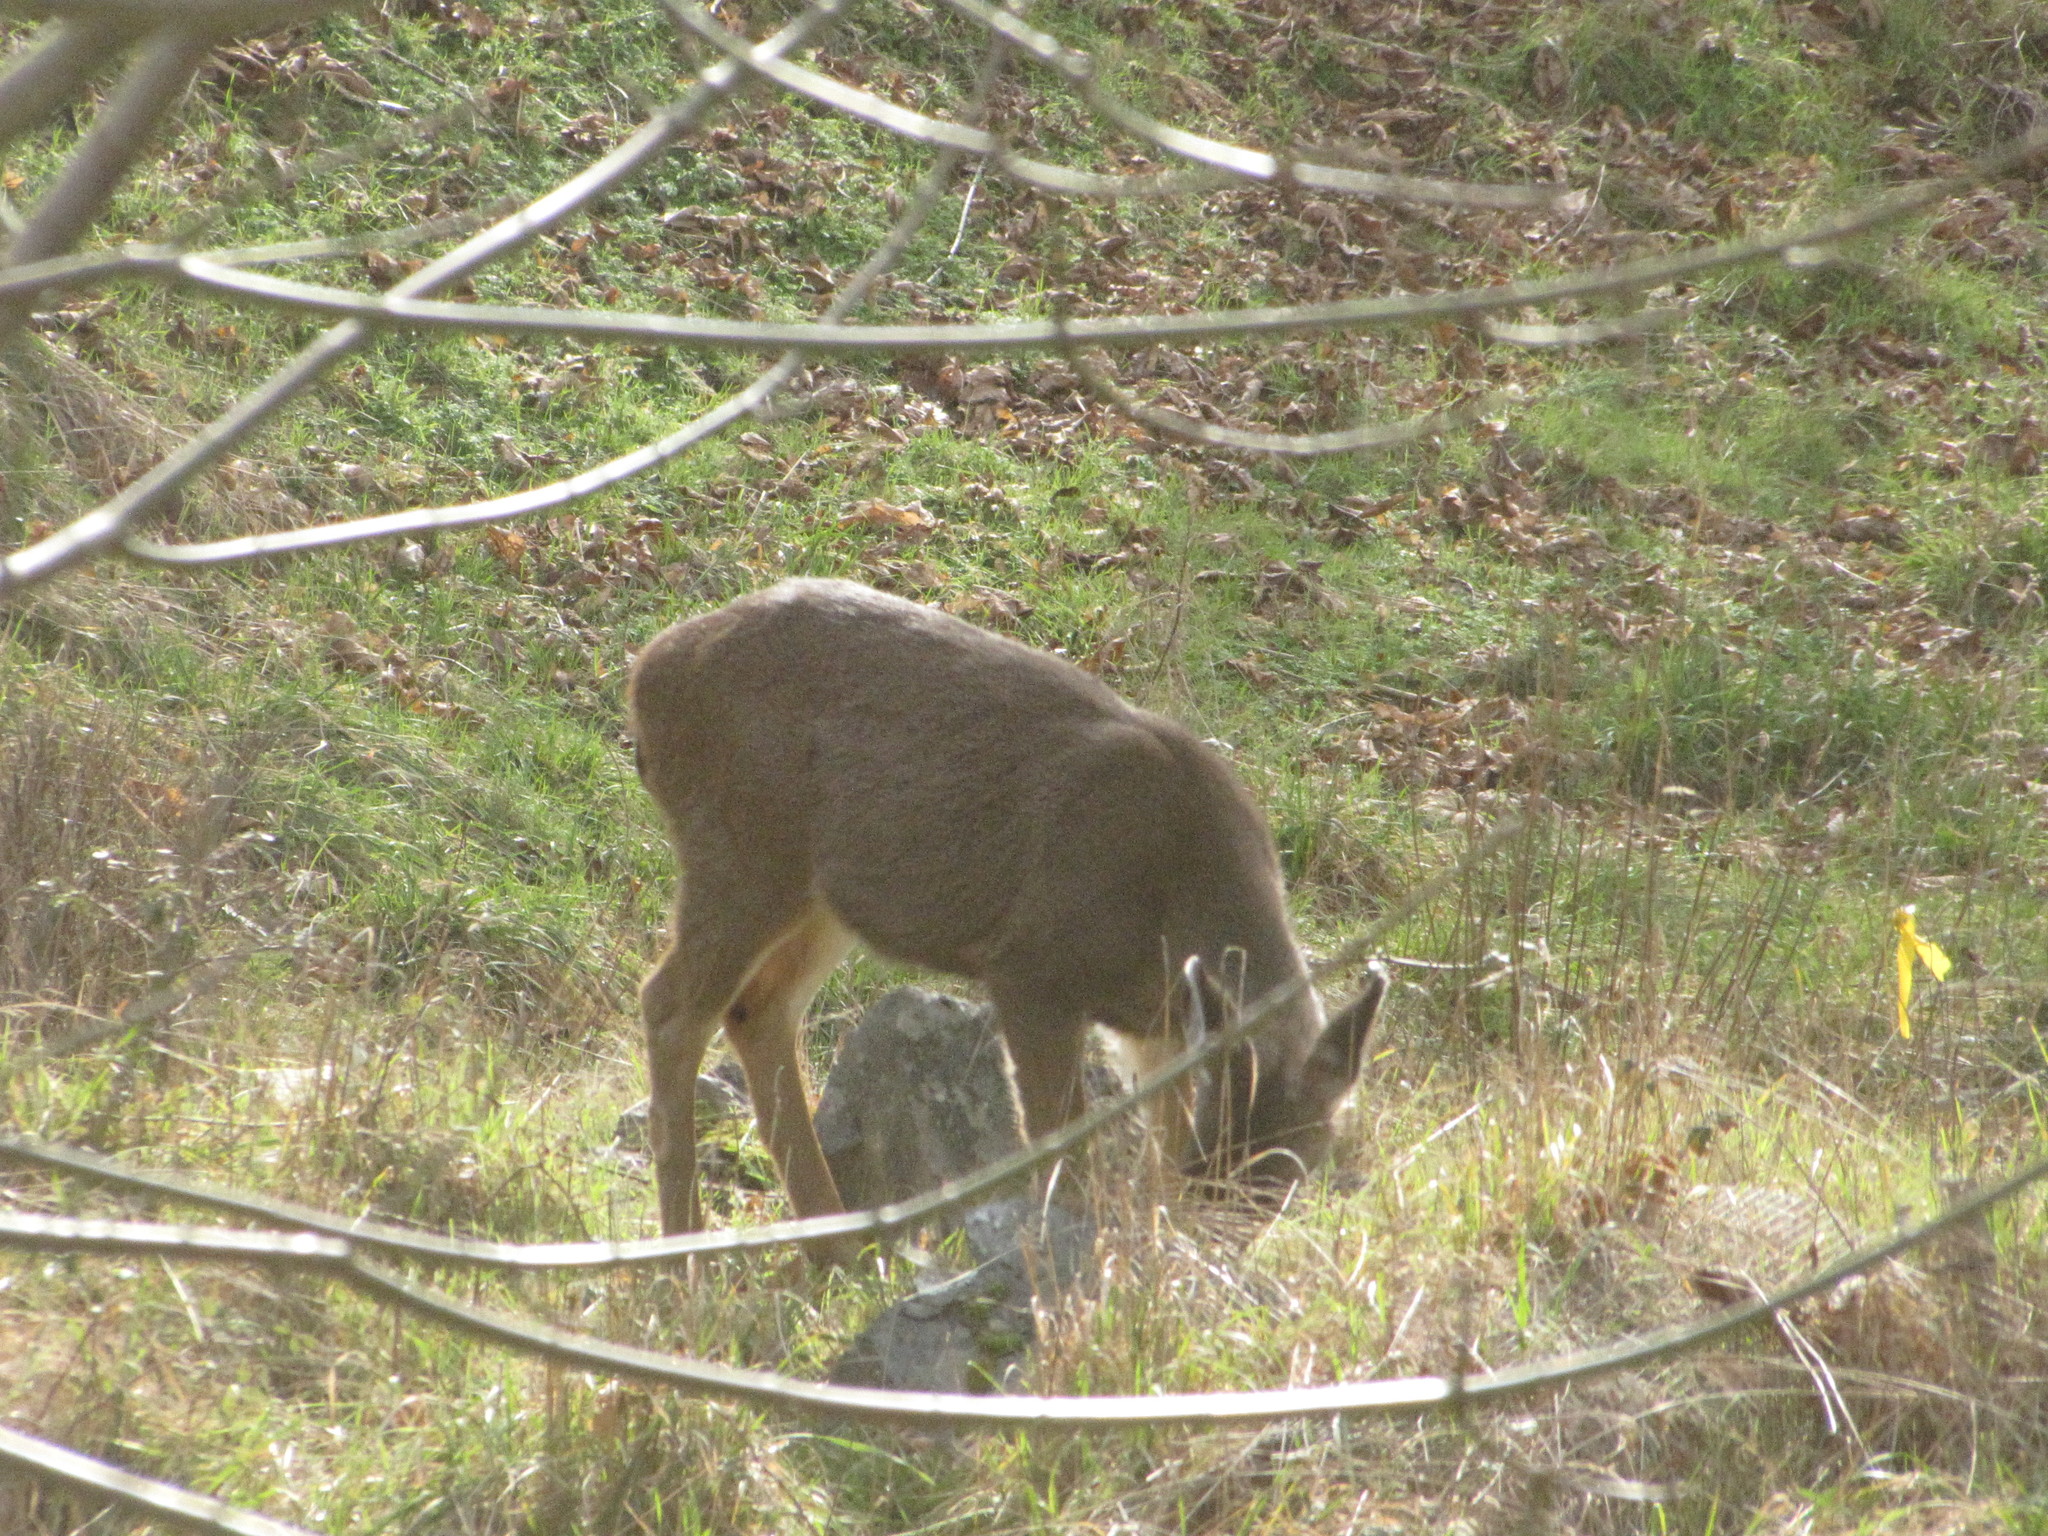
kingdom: Animalia
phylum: Chordata
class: Mammalia
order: Artiodactyla
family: Cervidae
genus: Odocoileus
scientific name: Odocoileus hemionus
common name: Mule deer
